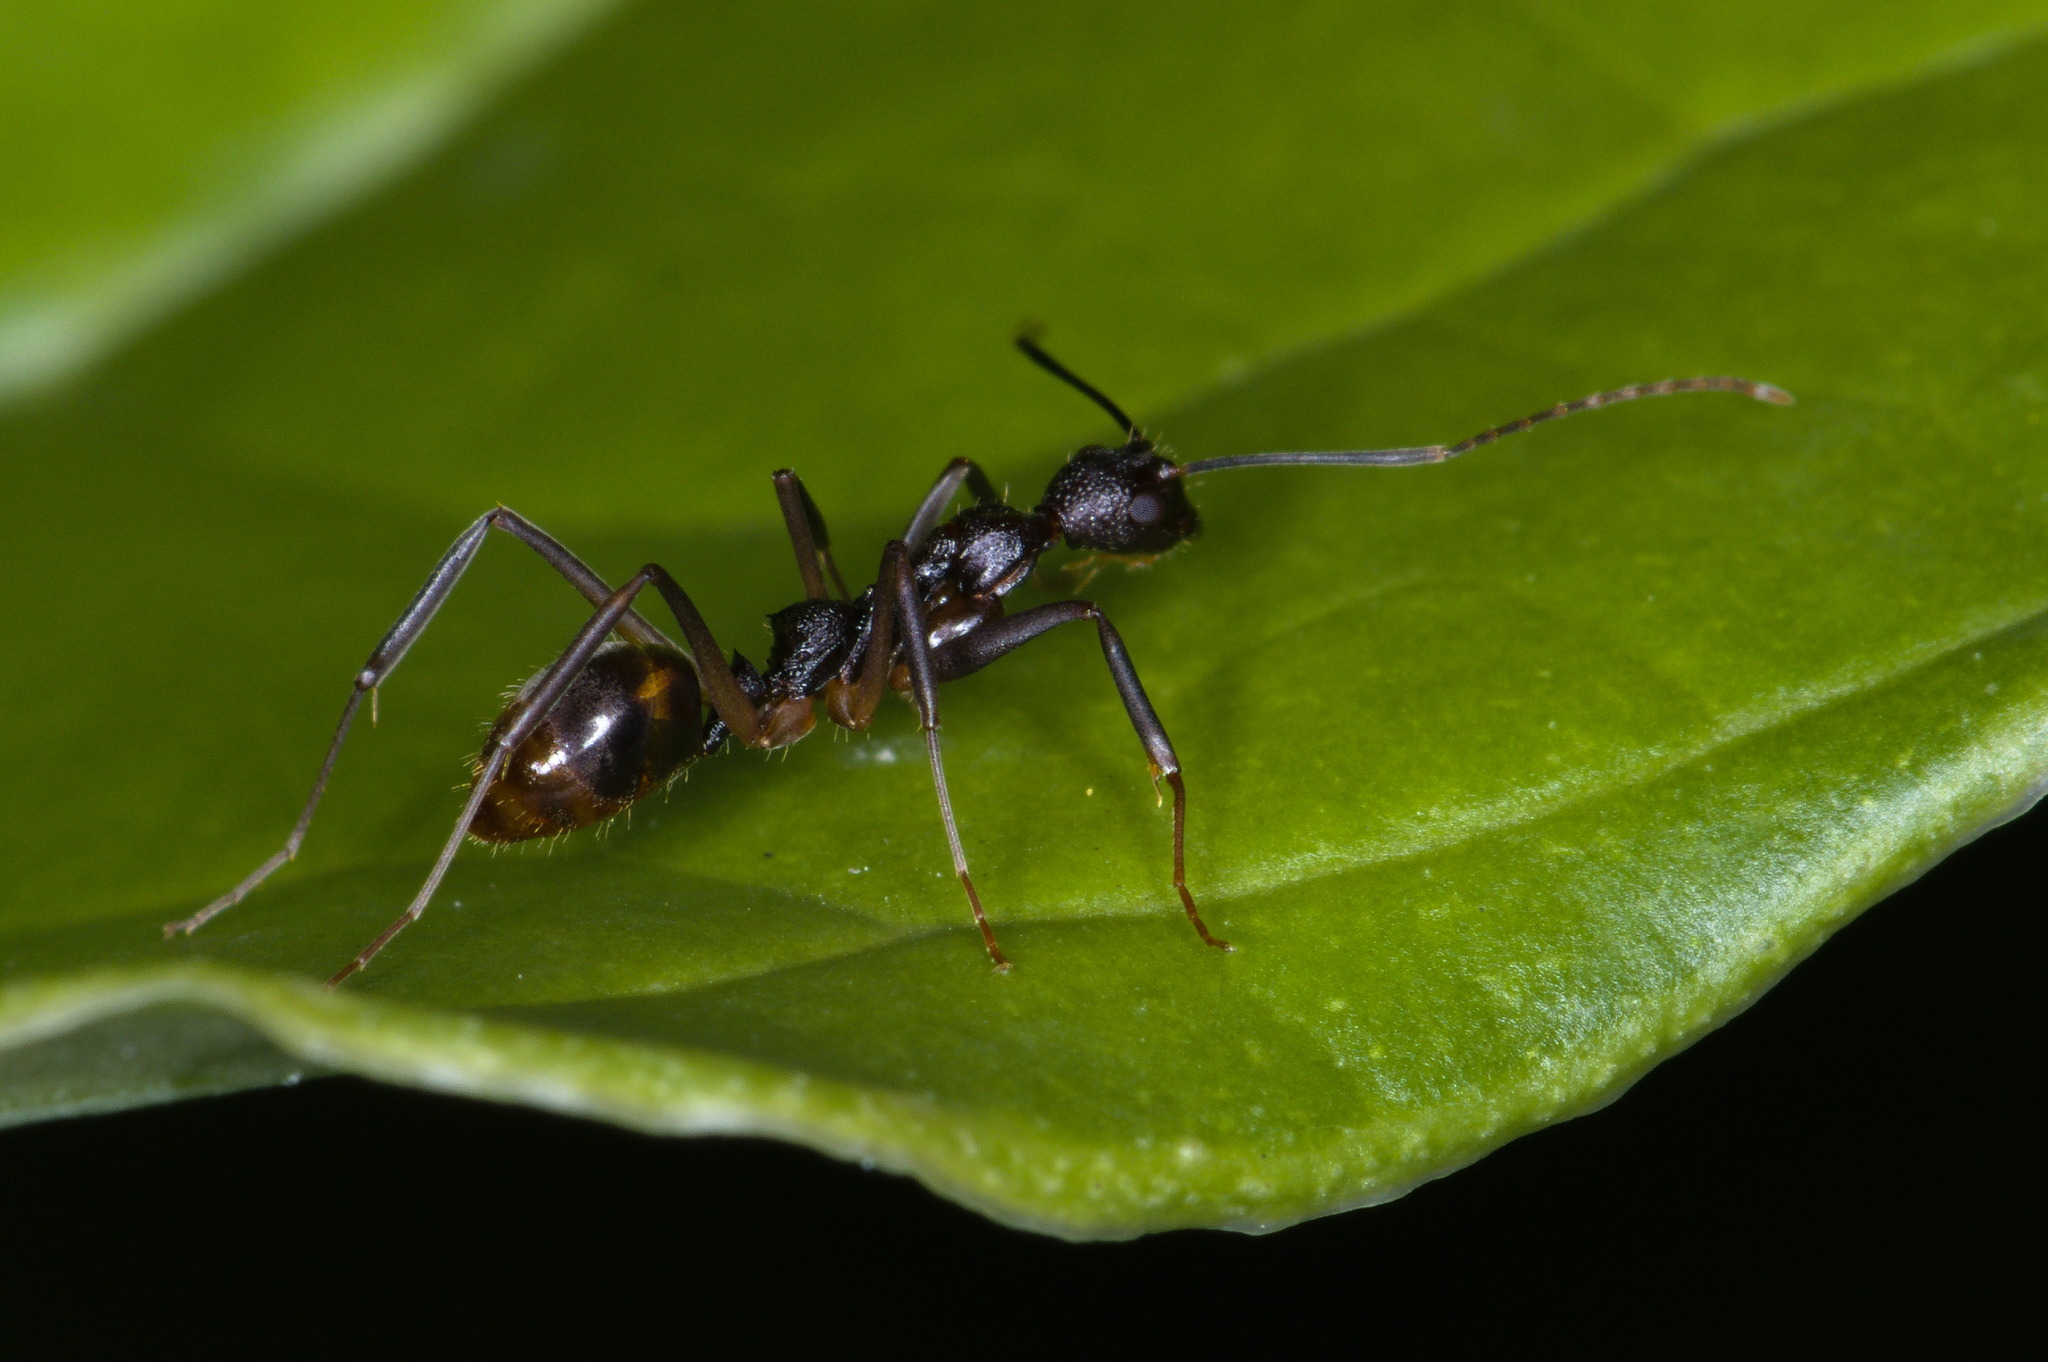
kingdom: Animalia
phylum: Arthropoda
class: Insecta
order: Hymenoptera
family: Formicidae
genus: Dolichoderus
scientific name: Dolichoderus imitator
